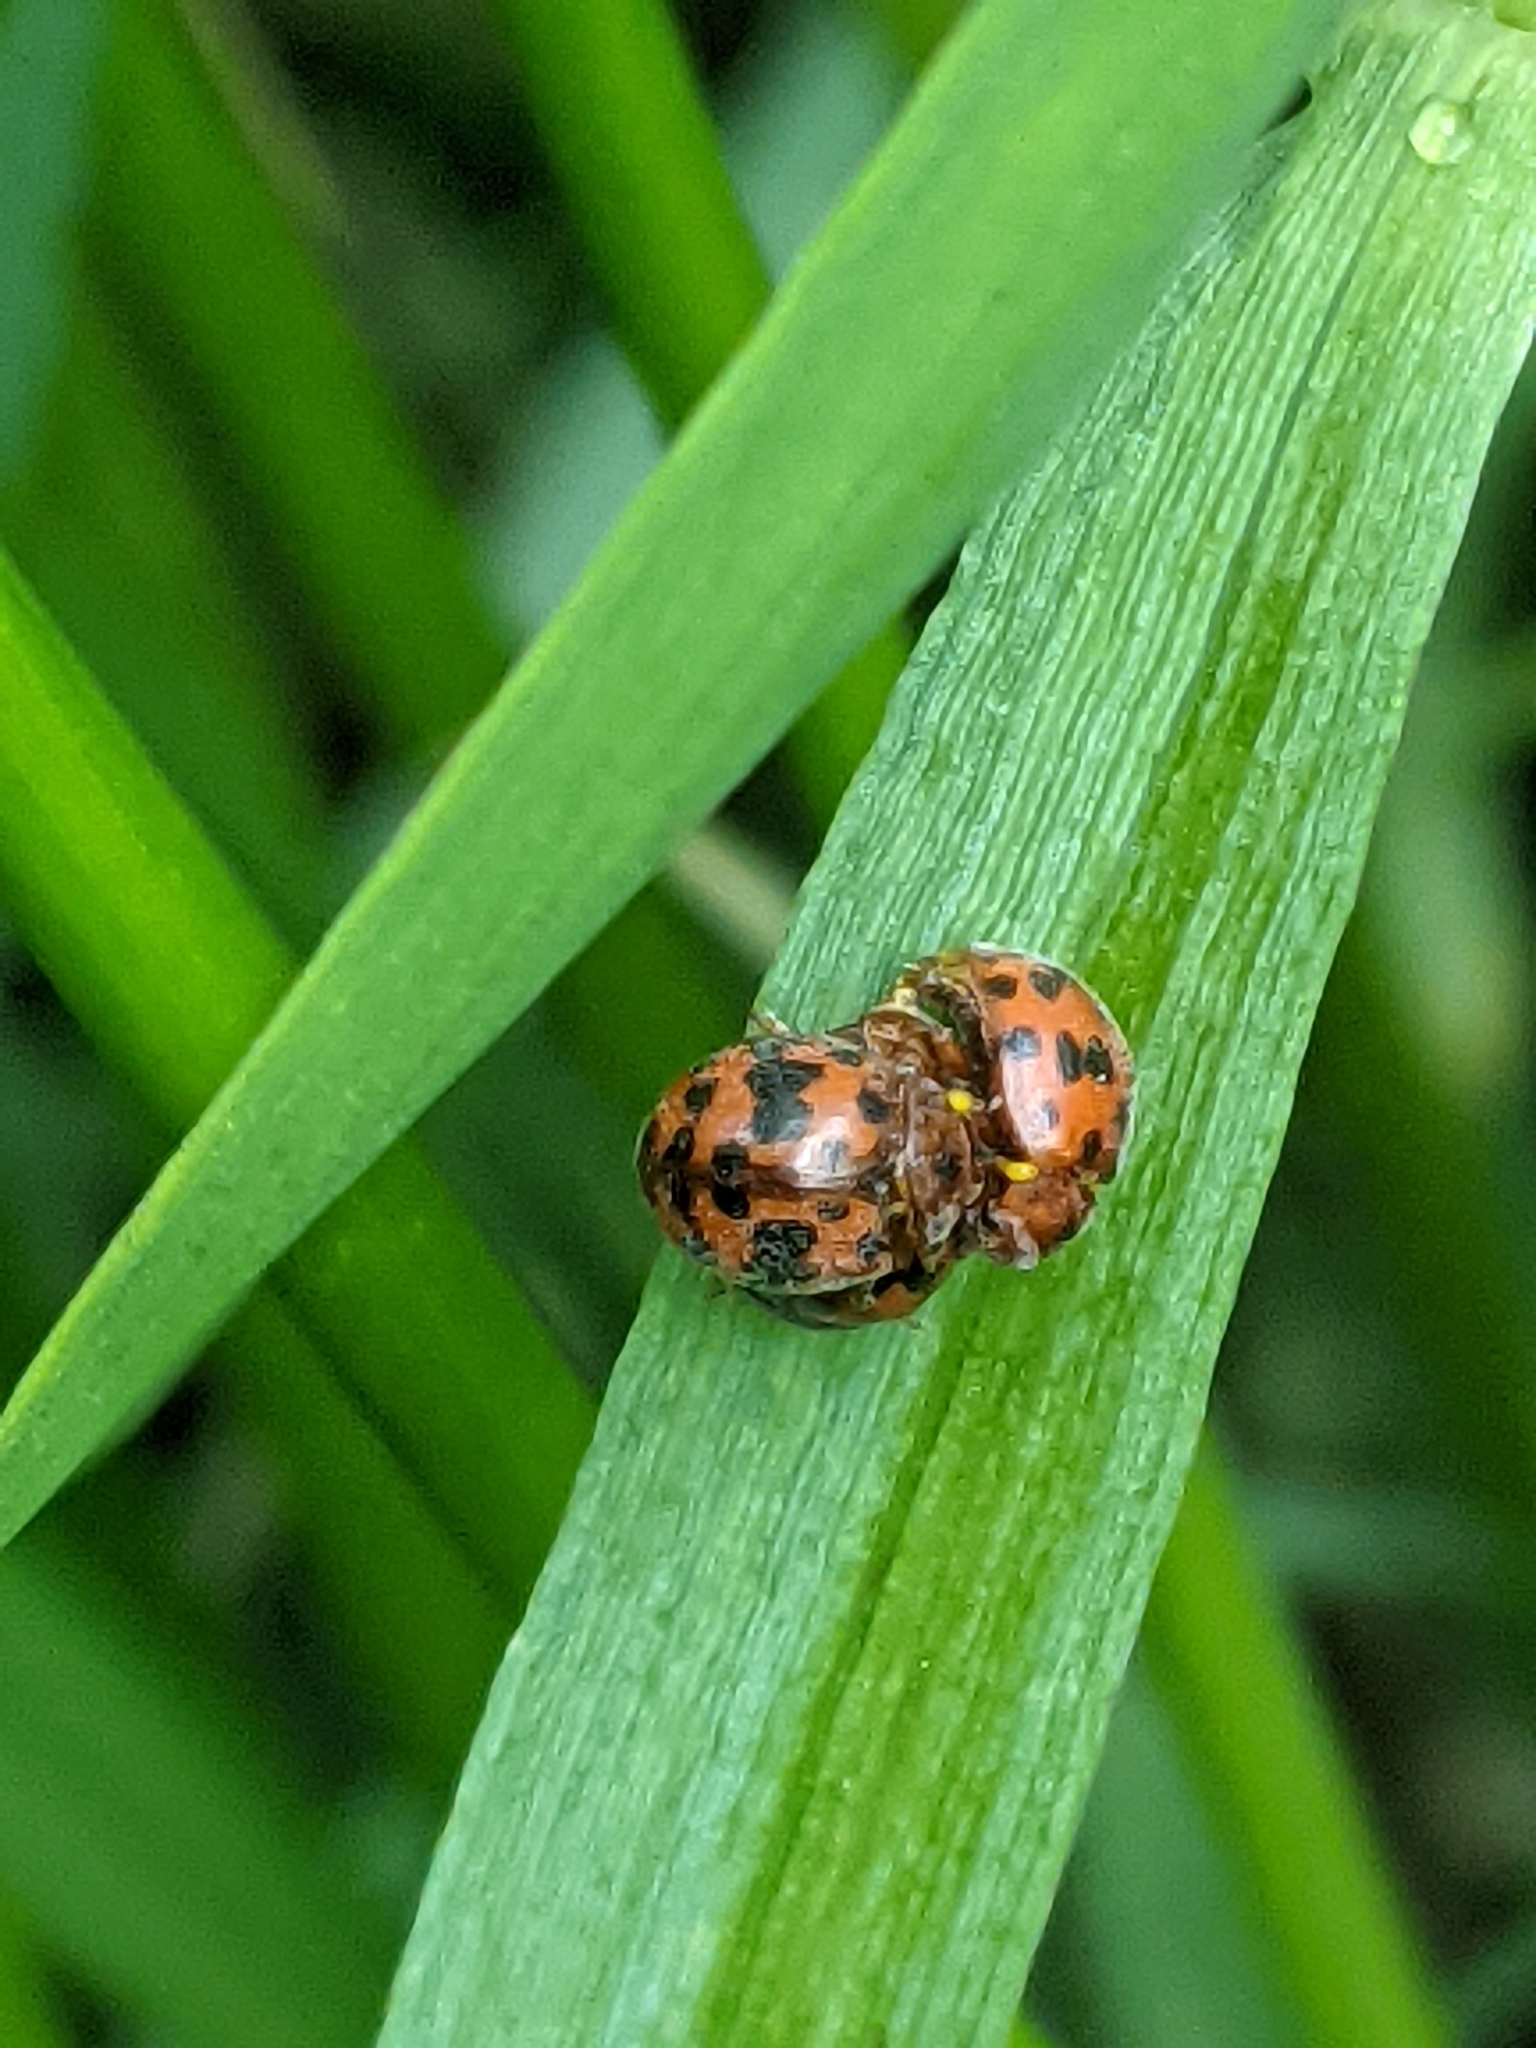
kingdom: Animalia
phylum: Arthropoda
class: Insecta
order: Coleoptera
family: Coccinellidae
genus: Subcoccinella
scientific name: Subcoccinella vigintiquatuorpunctata
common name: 24-spot ladybird
